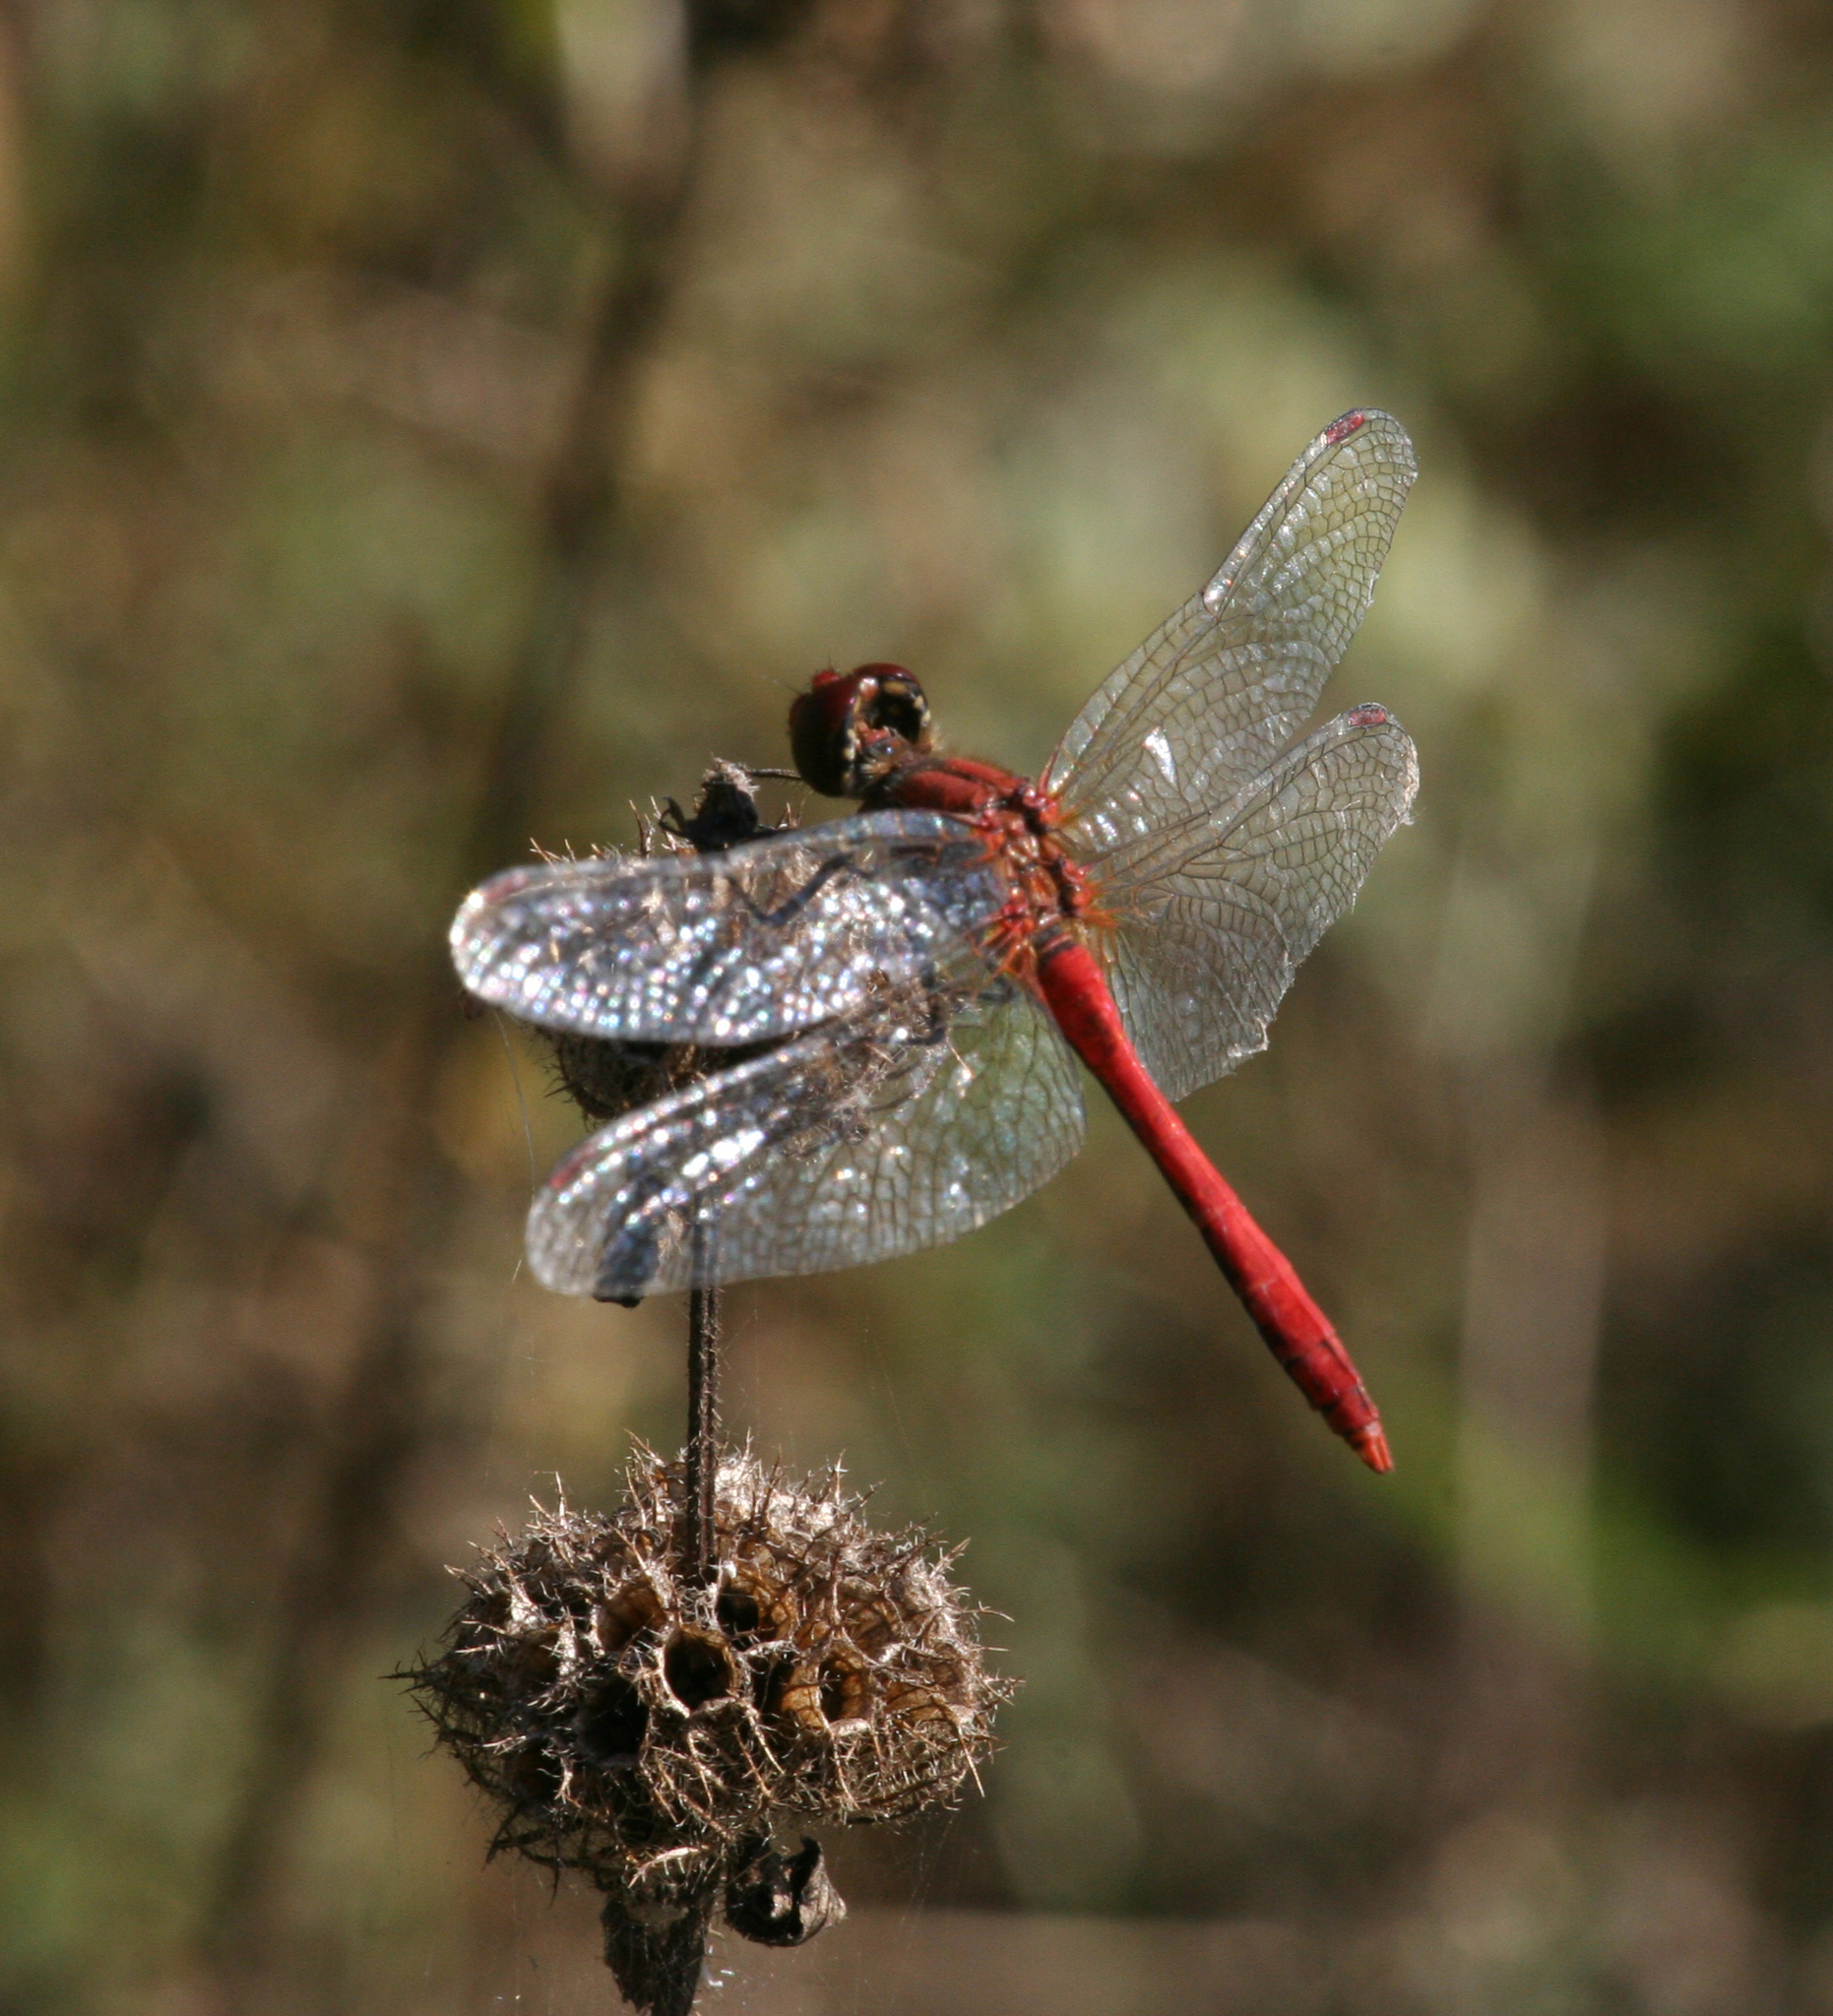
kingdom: Animalia
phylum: Arthropoda
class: Insecta
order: Odonata
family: Libellulidae
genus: Sympetrum
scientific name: Sympetrum sanguineum
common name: Ruddy darter
